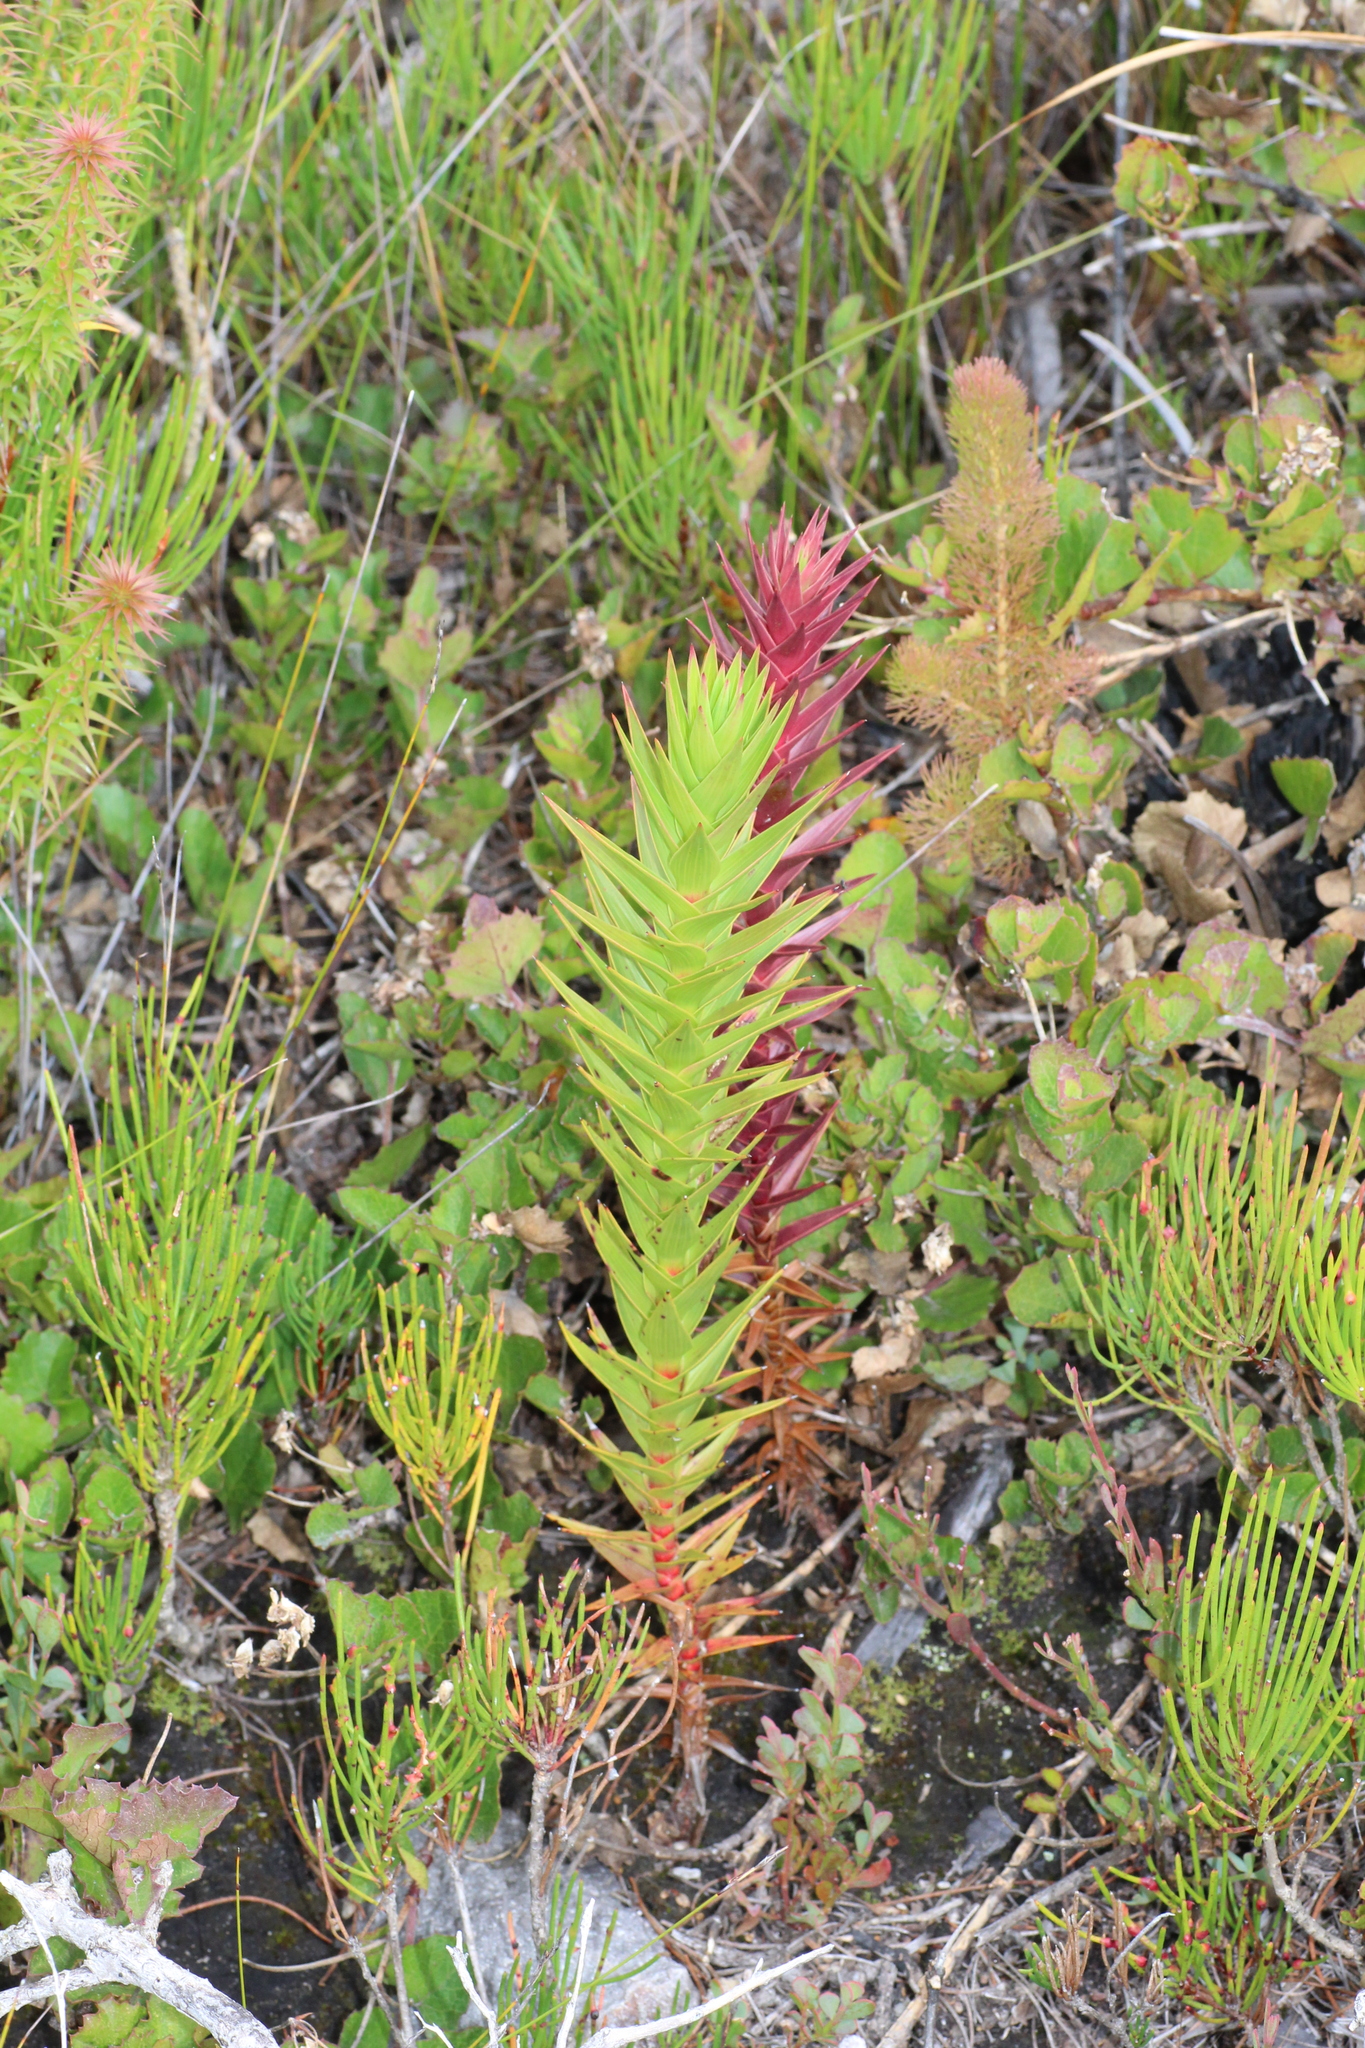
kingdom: Plantae
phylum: Tracheophyta
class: Magnoliopsida
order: Ericales
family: Ericaceae
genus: Andersonia
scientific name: Andersonia axilliflora
